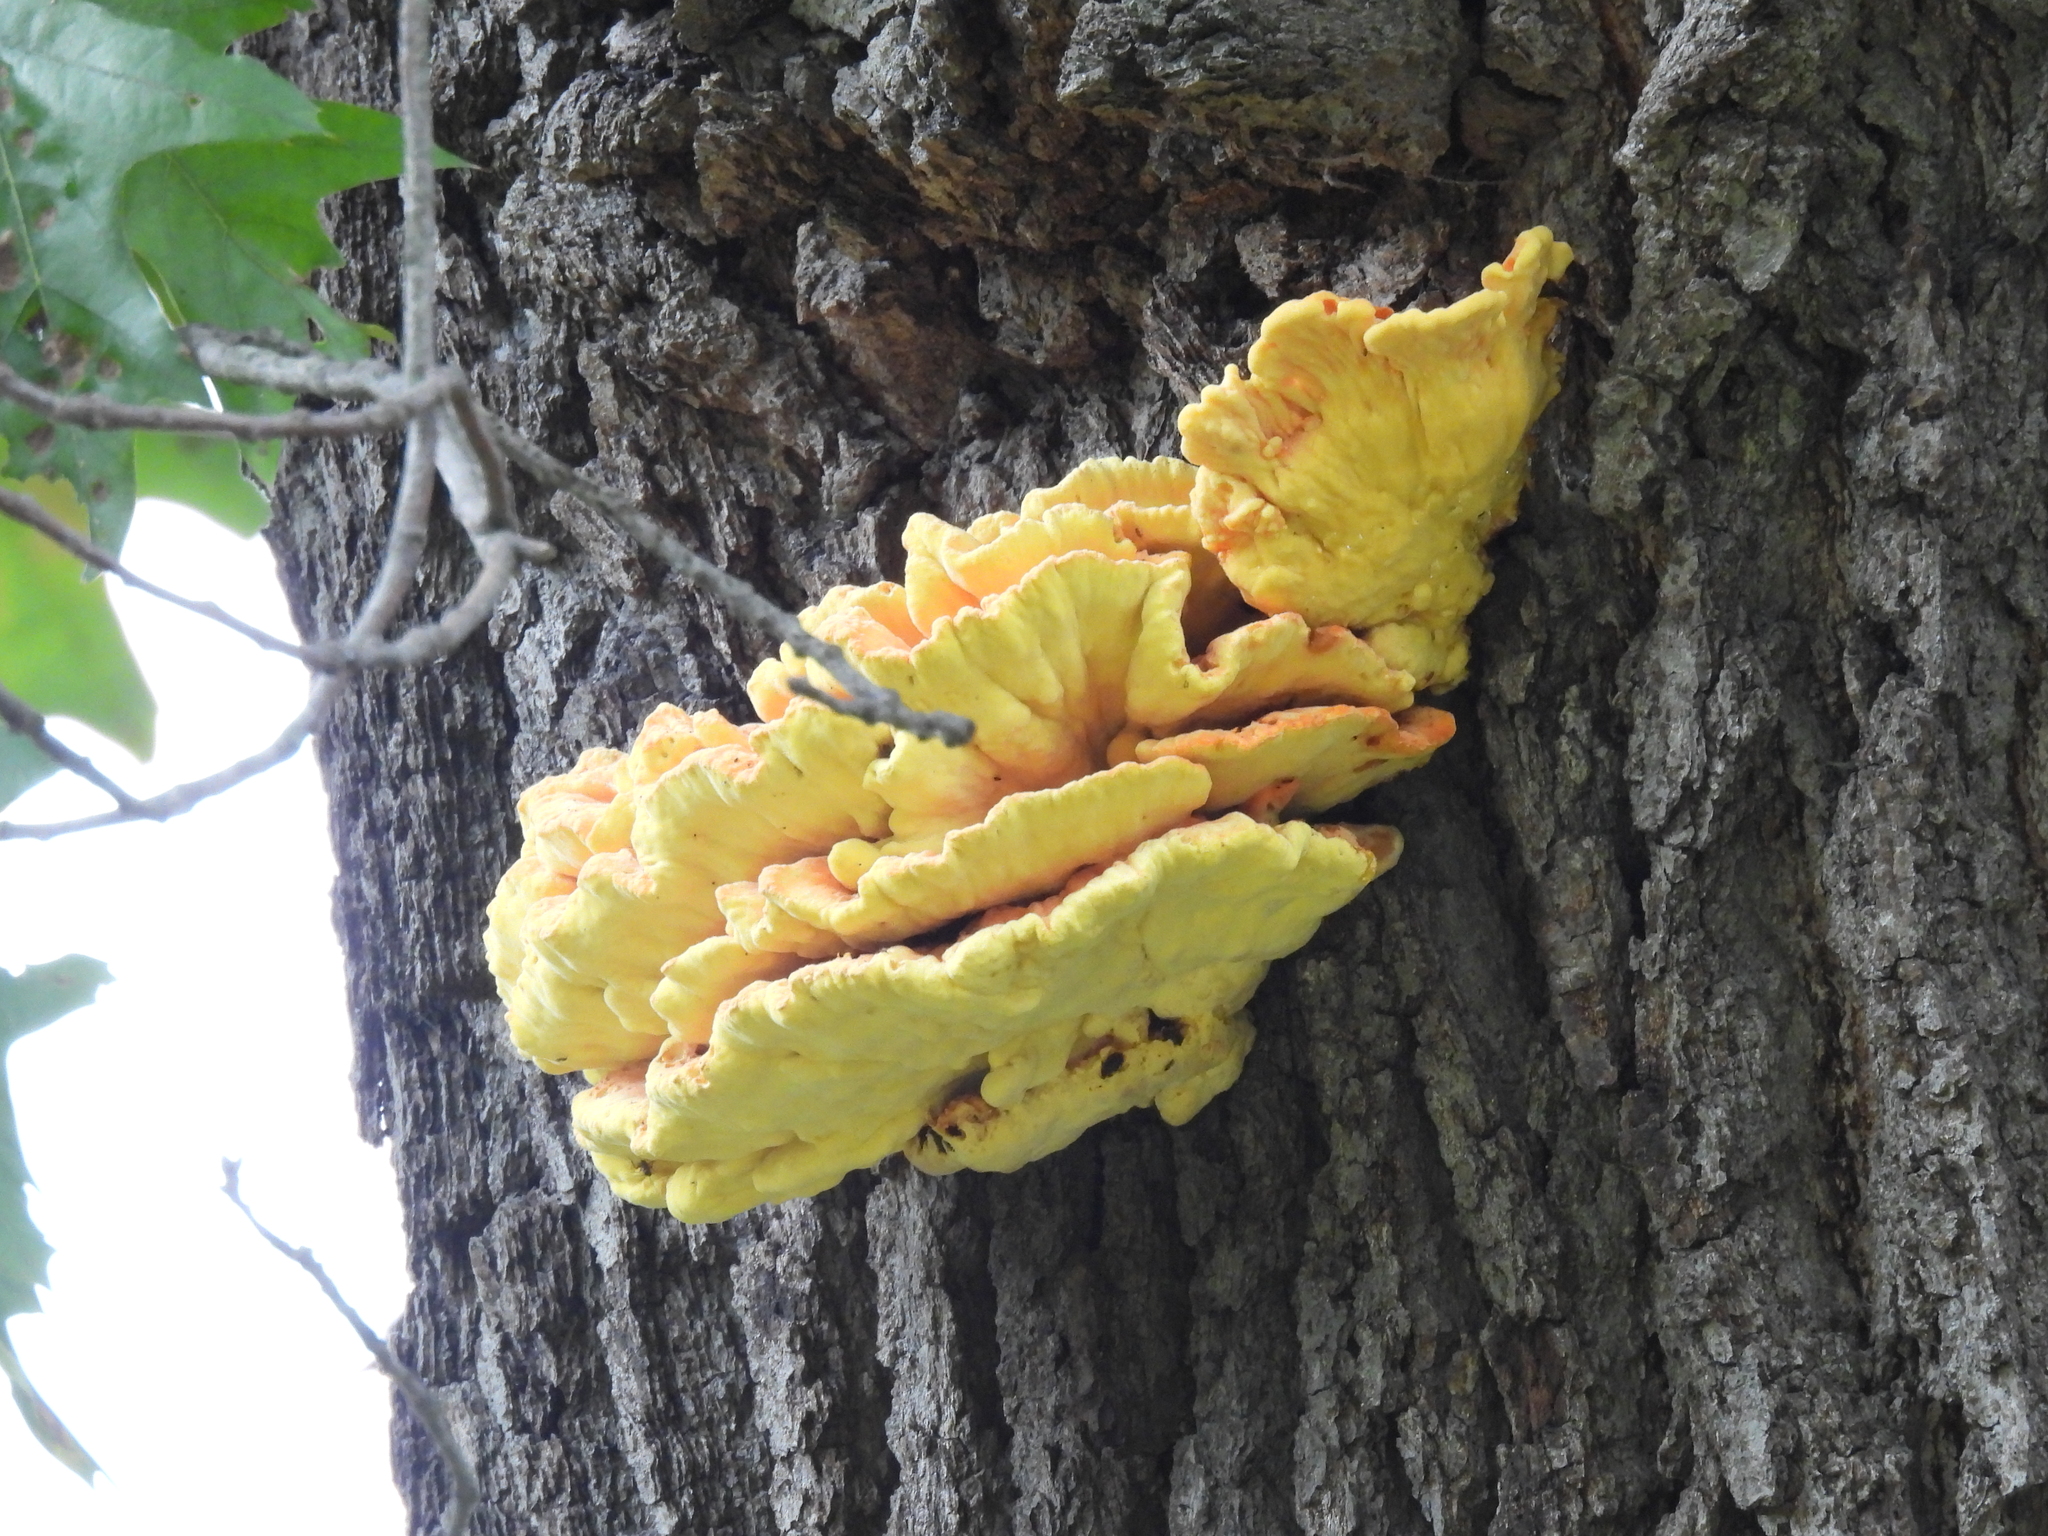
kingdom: Fungi
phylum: Basidiomycota
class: Agaricomycetes
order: Polyporales
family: Laetiporaceae
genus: Laetiporus
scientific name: Laetiporus sulphureus
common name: Chicken of the woods
